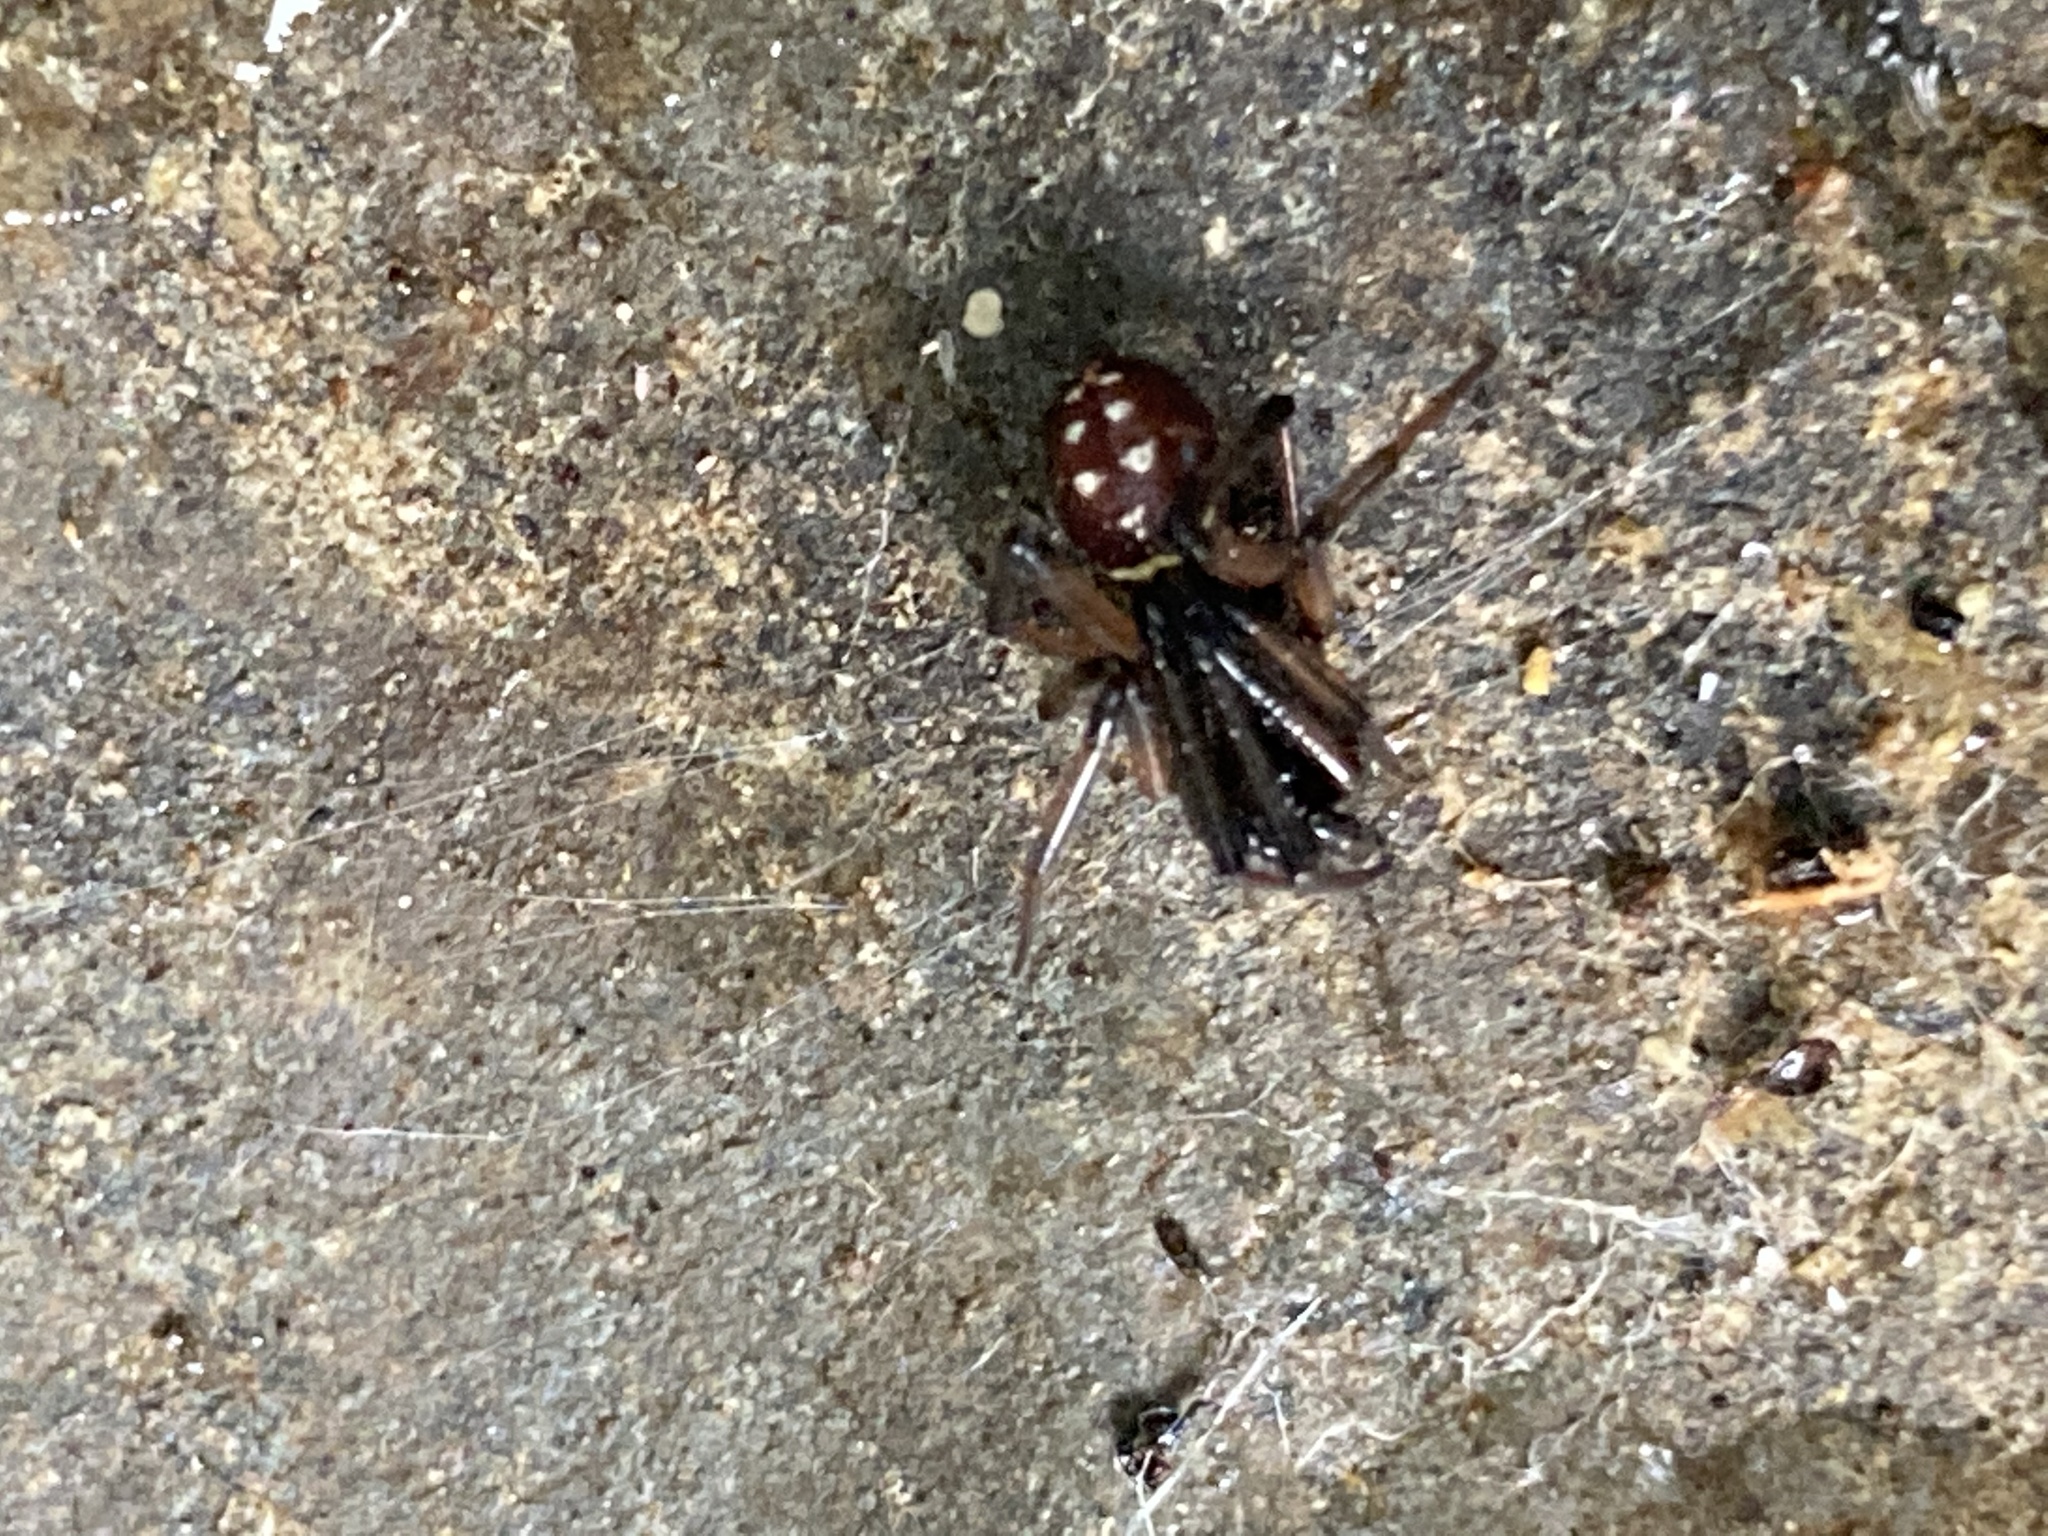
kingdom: Animalia
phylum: Arthropoda
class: Arachnida
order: Araneae
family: Theridiidae
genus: Steatoda
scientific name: Steatoda capensis
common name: Cobweb weaver
